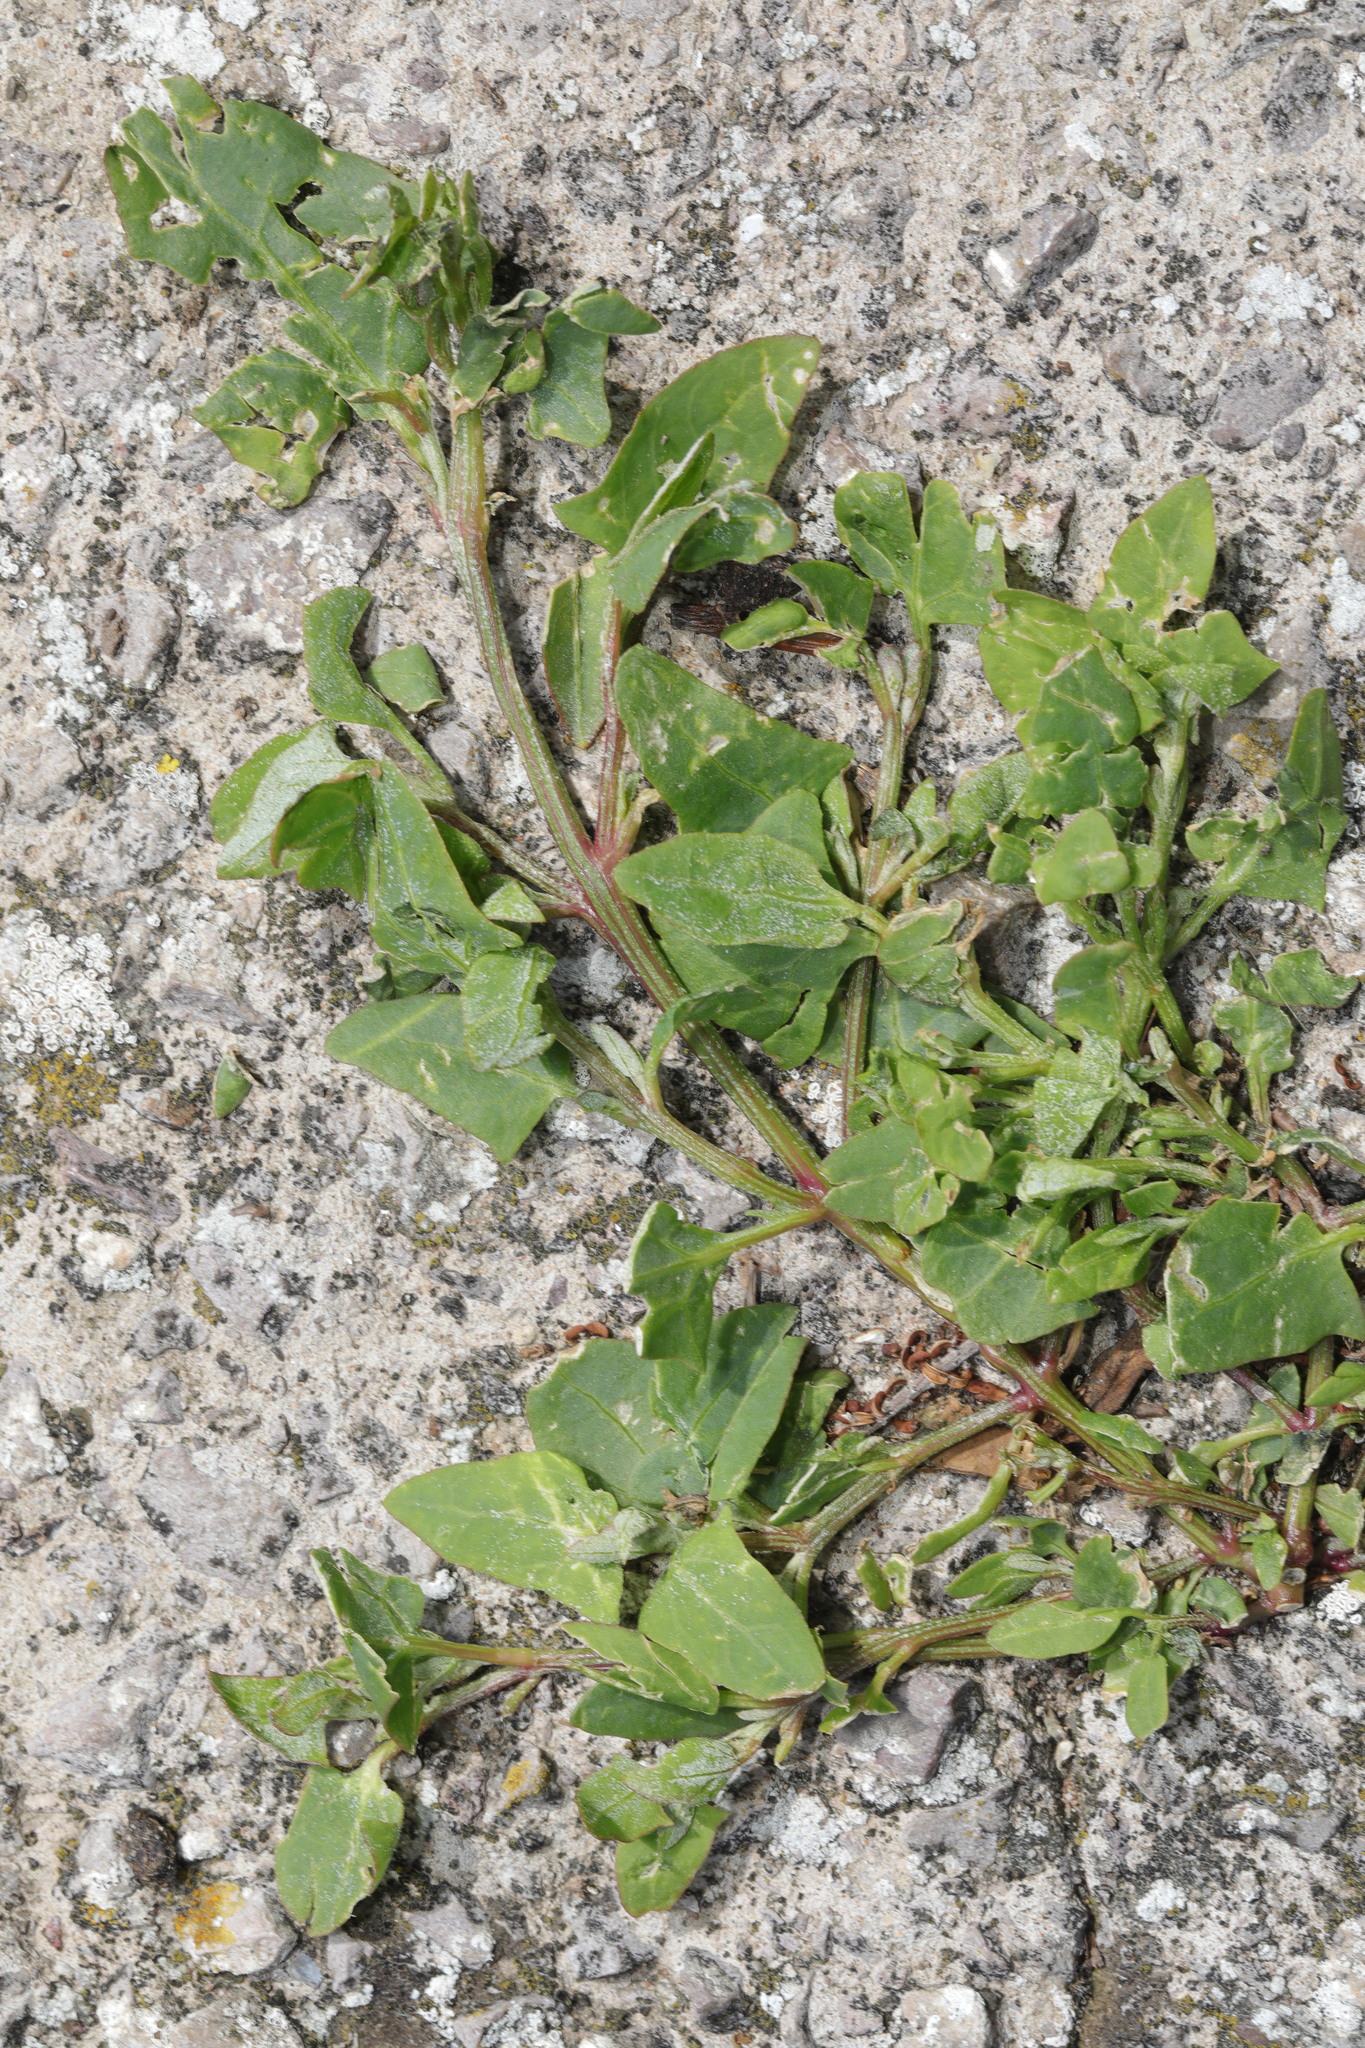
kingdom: Plantae
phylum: Tracheophyta
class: Magnoliopsida
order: Caryophyllales
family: Amaranthaceae
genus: Atriplex
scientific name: Atriplex prostrata
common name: Spear-leaved orache
